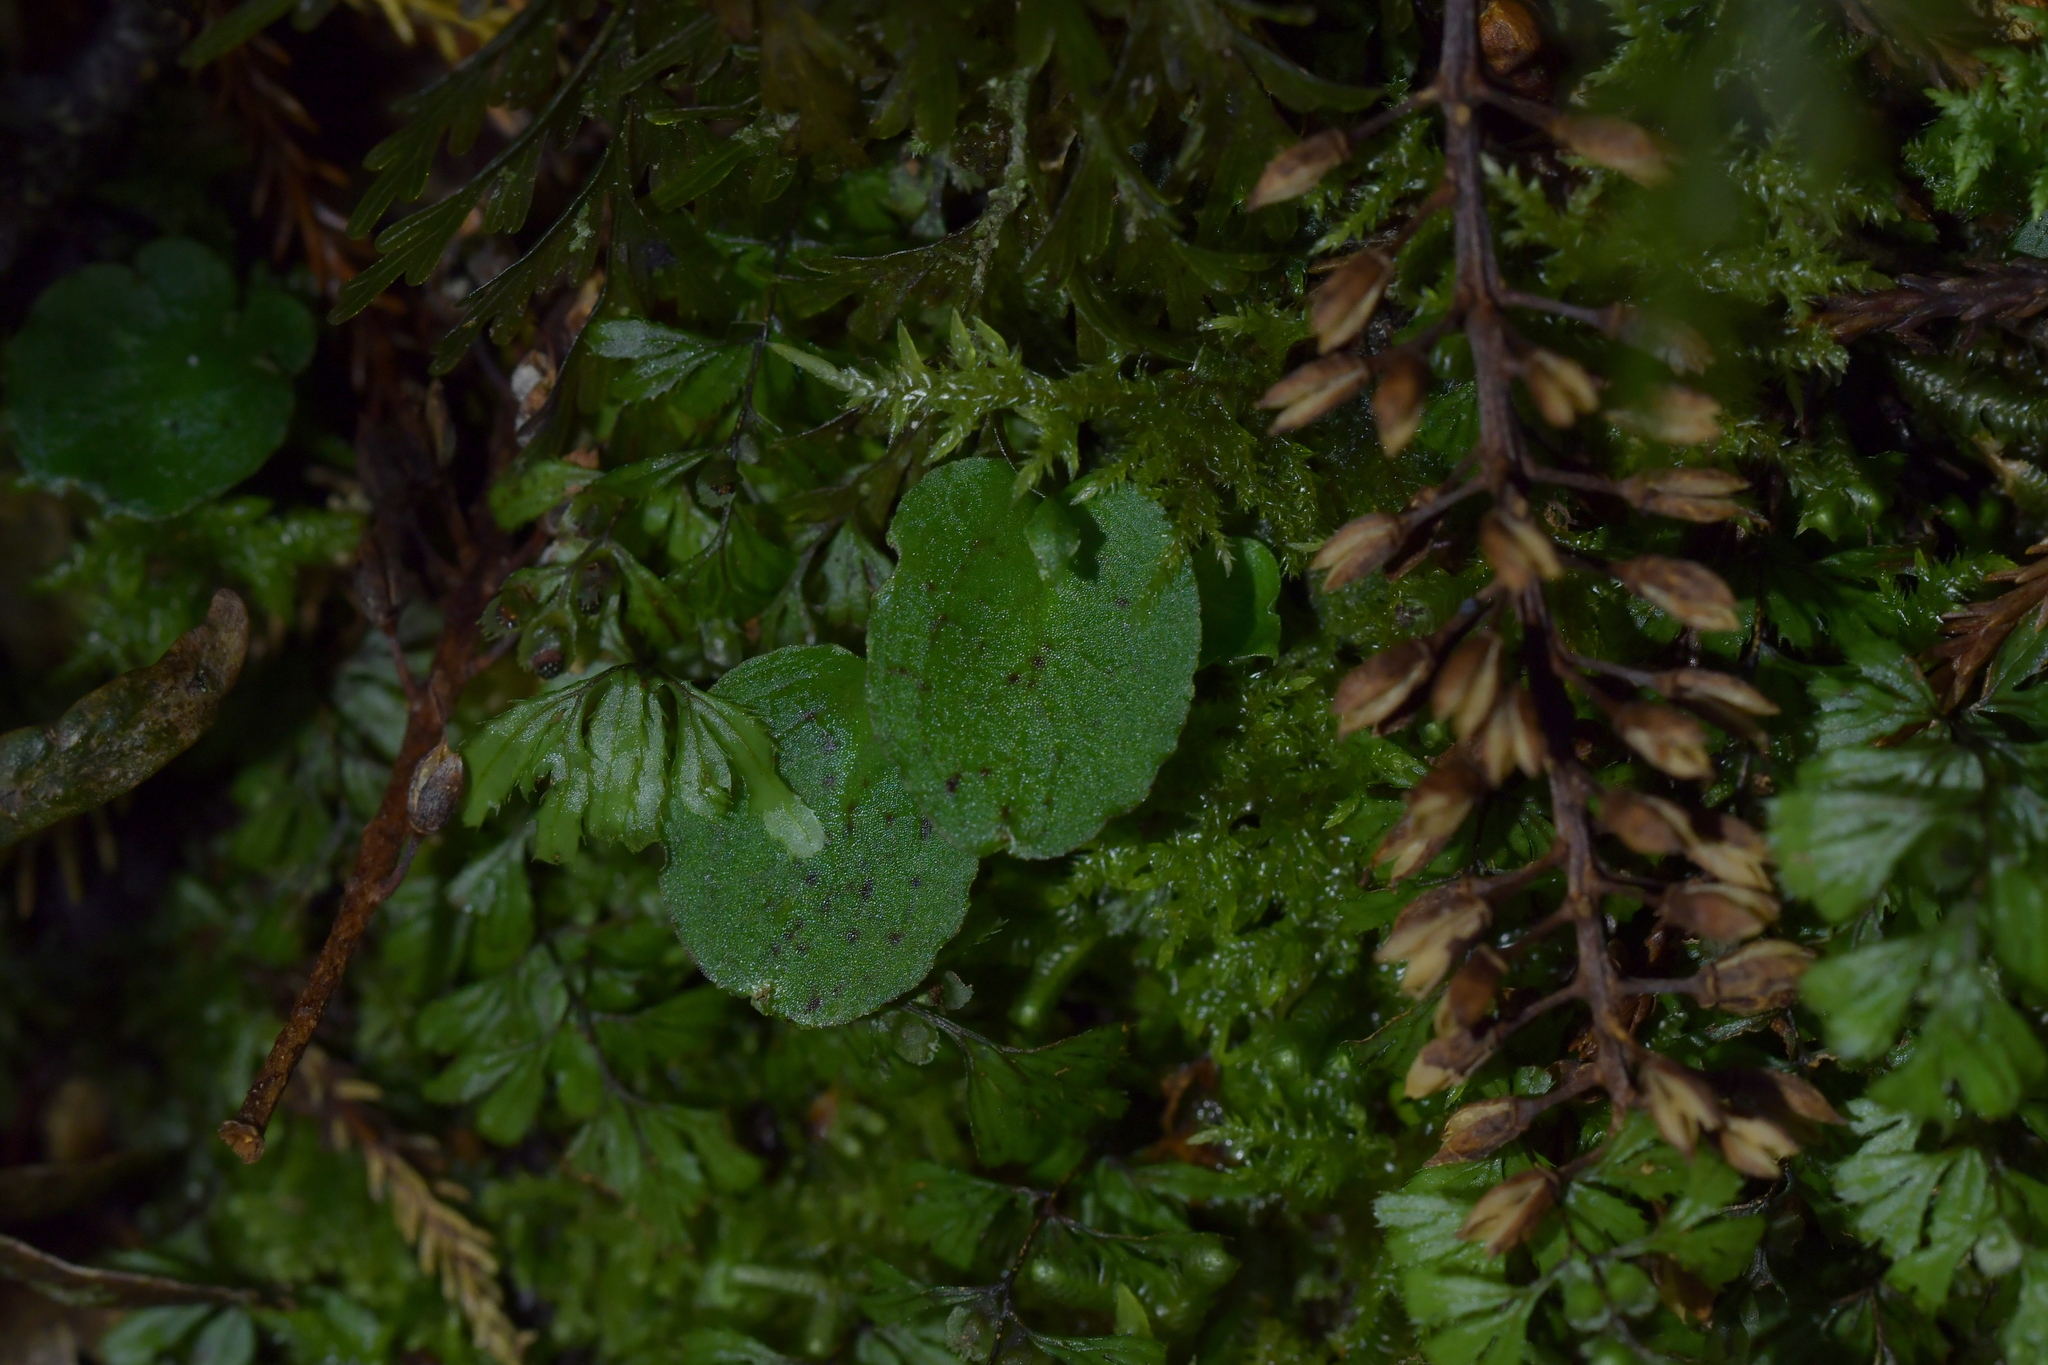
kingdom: Plantae
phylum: Tracheophyta
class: Liliopsida
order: Asparagales
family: Orchidaceae
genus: Corybas
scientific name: Corybas oblongus
